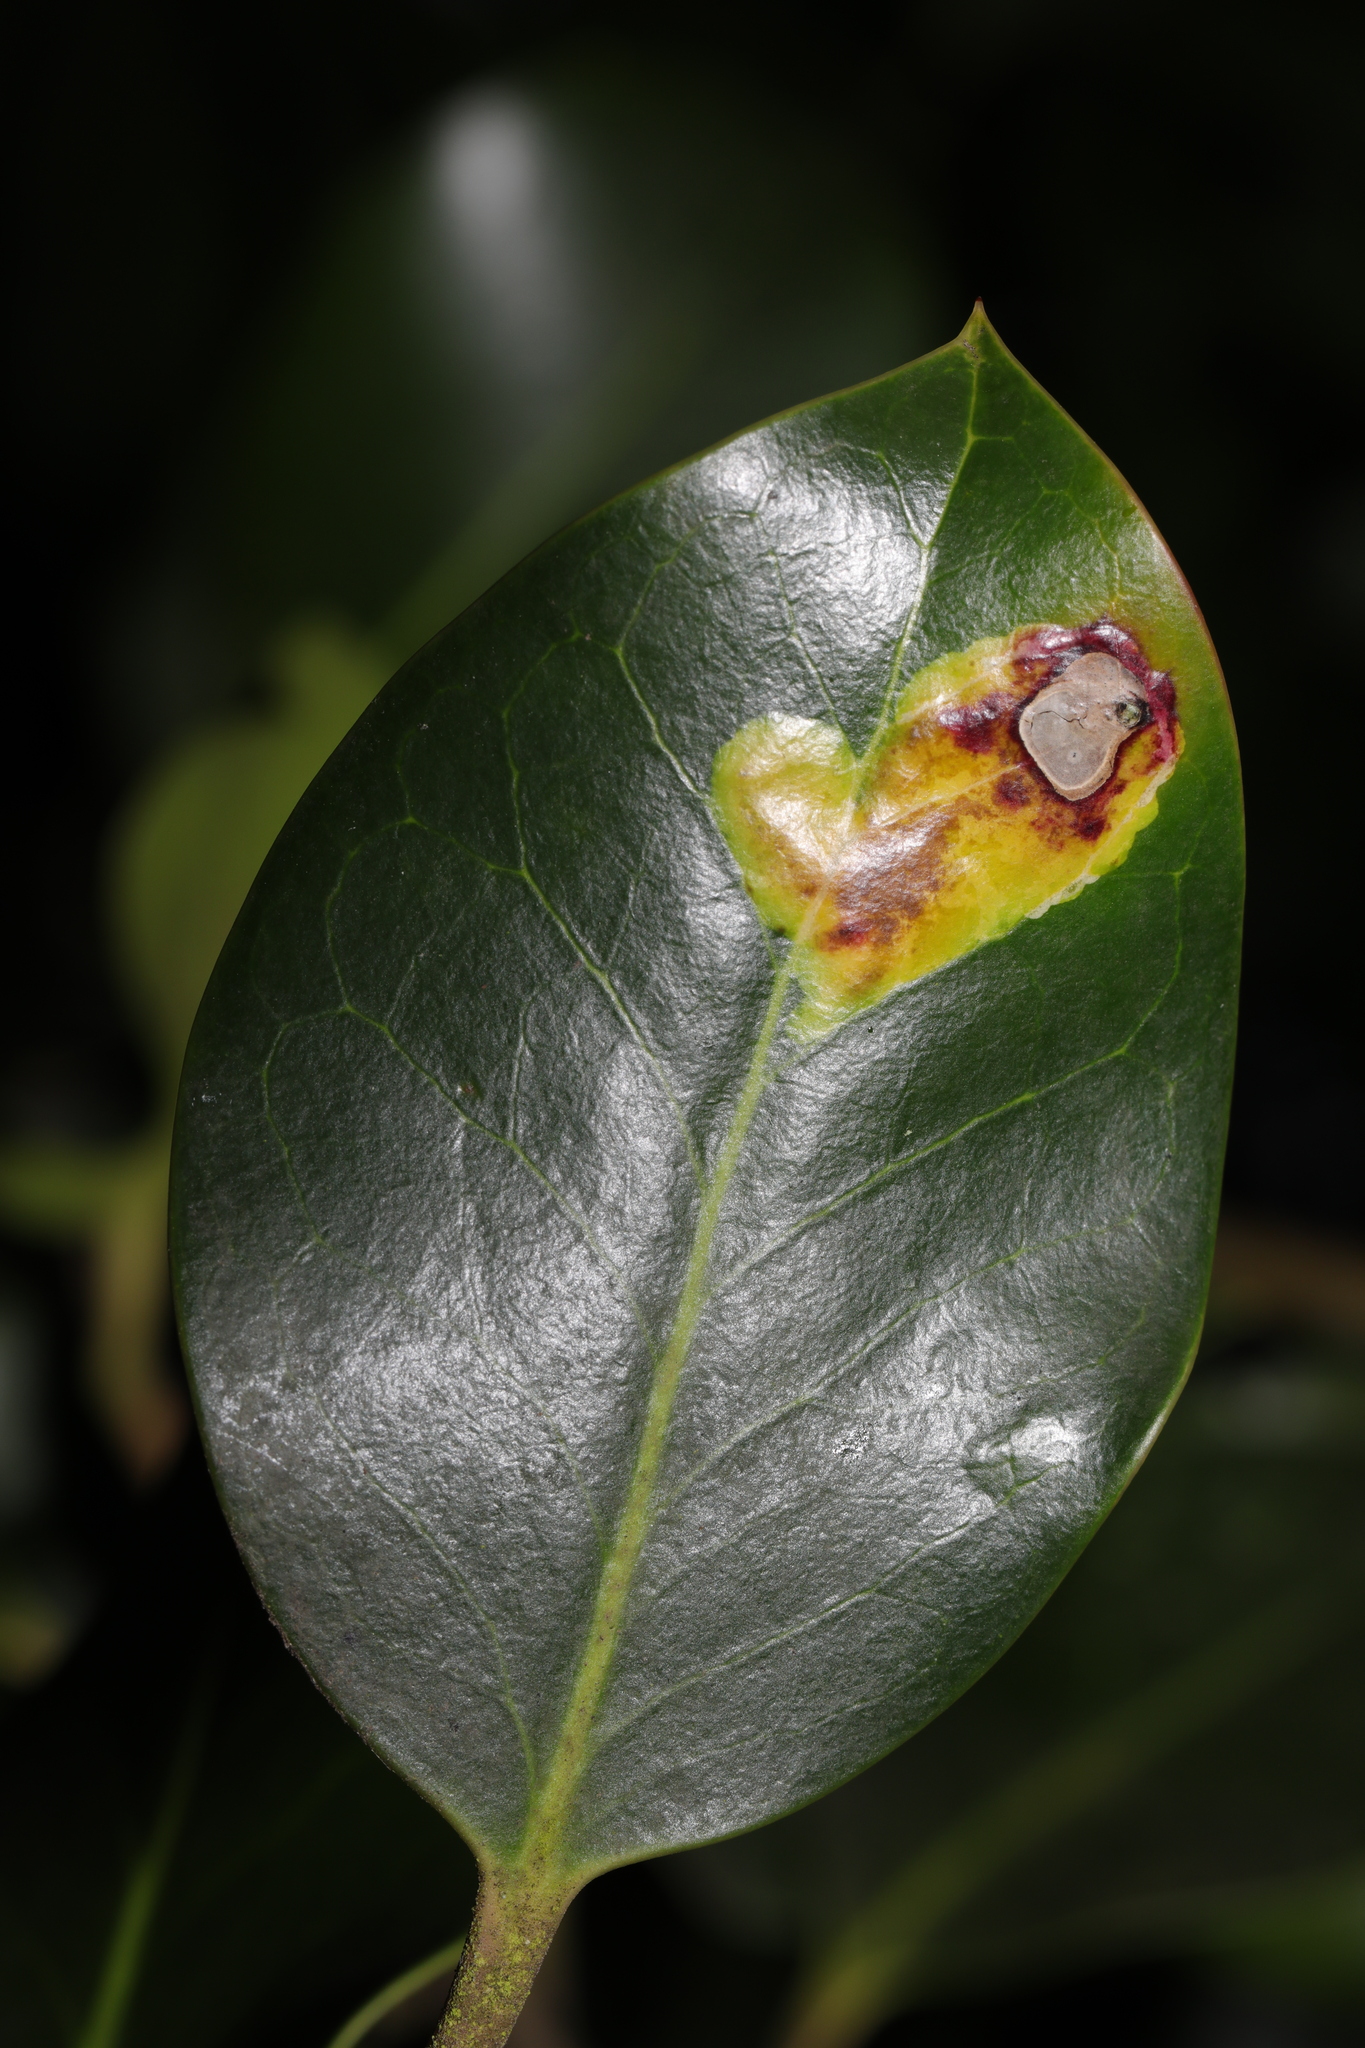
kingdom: Animalia
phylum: Arthropoda
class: Insecta
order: Diptera
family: Agromyzidae
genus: Phytomyza
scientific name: Phytomyza ilicis
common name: Holly leafminer
